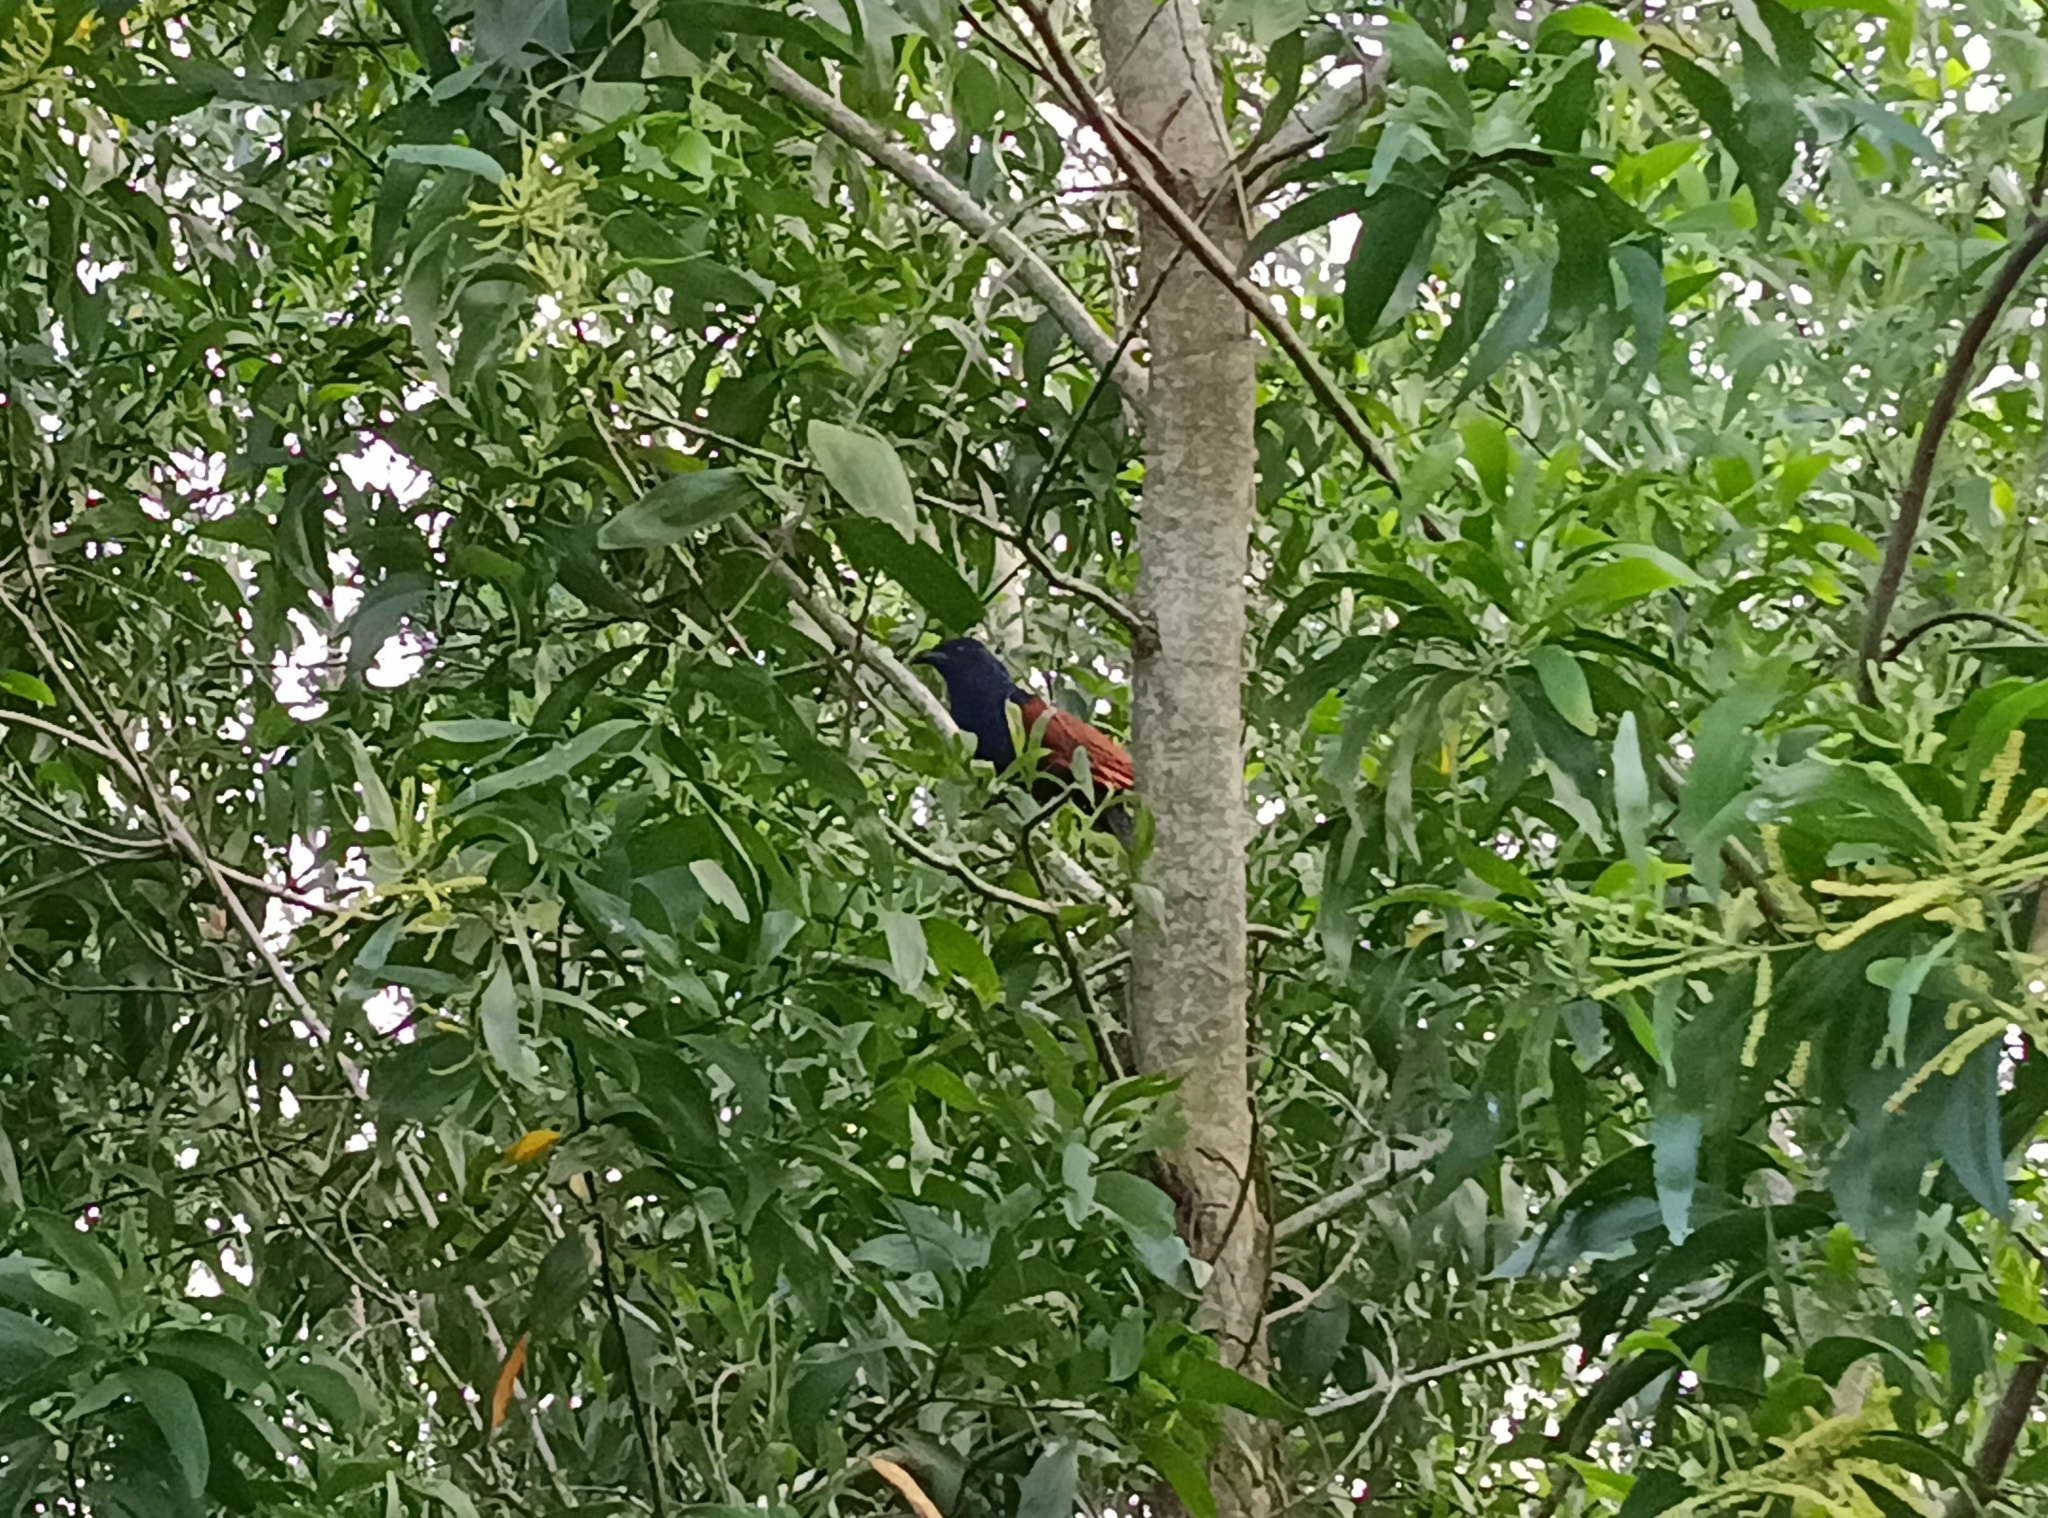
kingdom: Animalia
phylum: Chordata
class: Aves
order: Cuculiformes
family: Cuculidae
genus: Centropus
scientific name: Centropus sinensis
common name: Greater coucal
